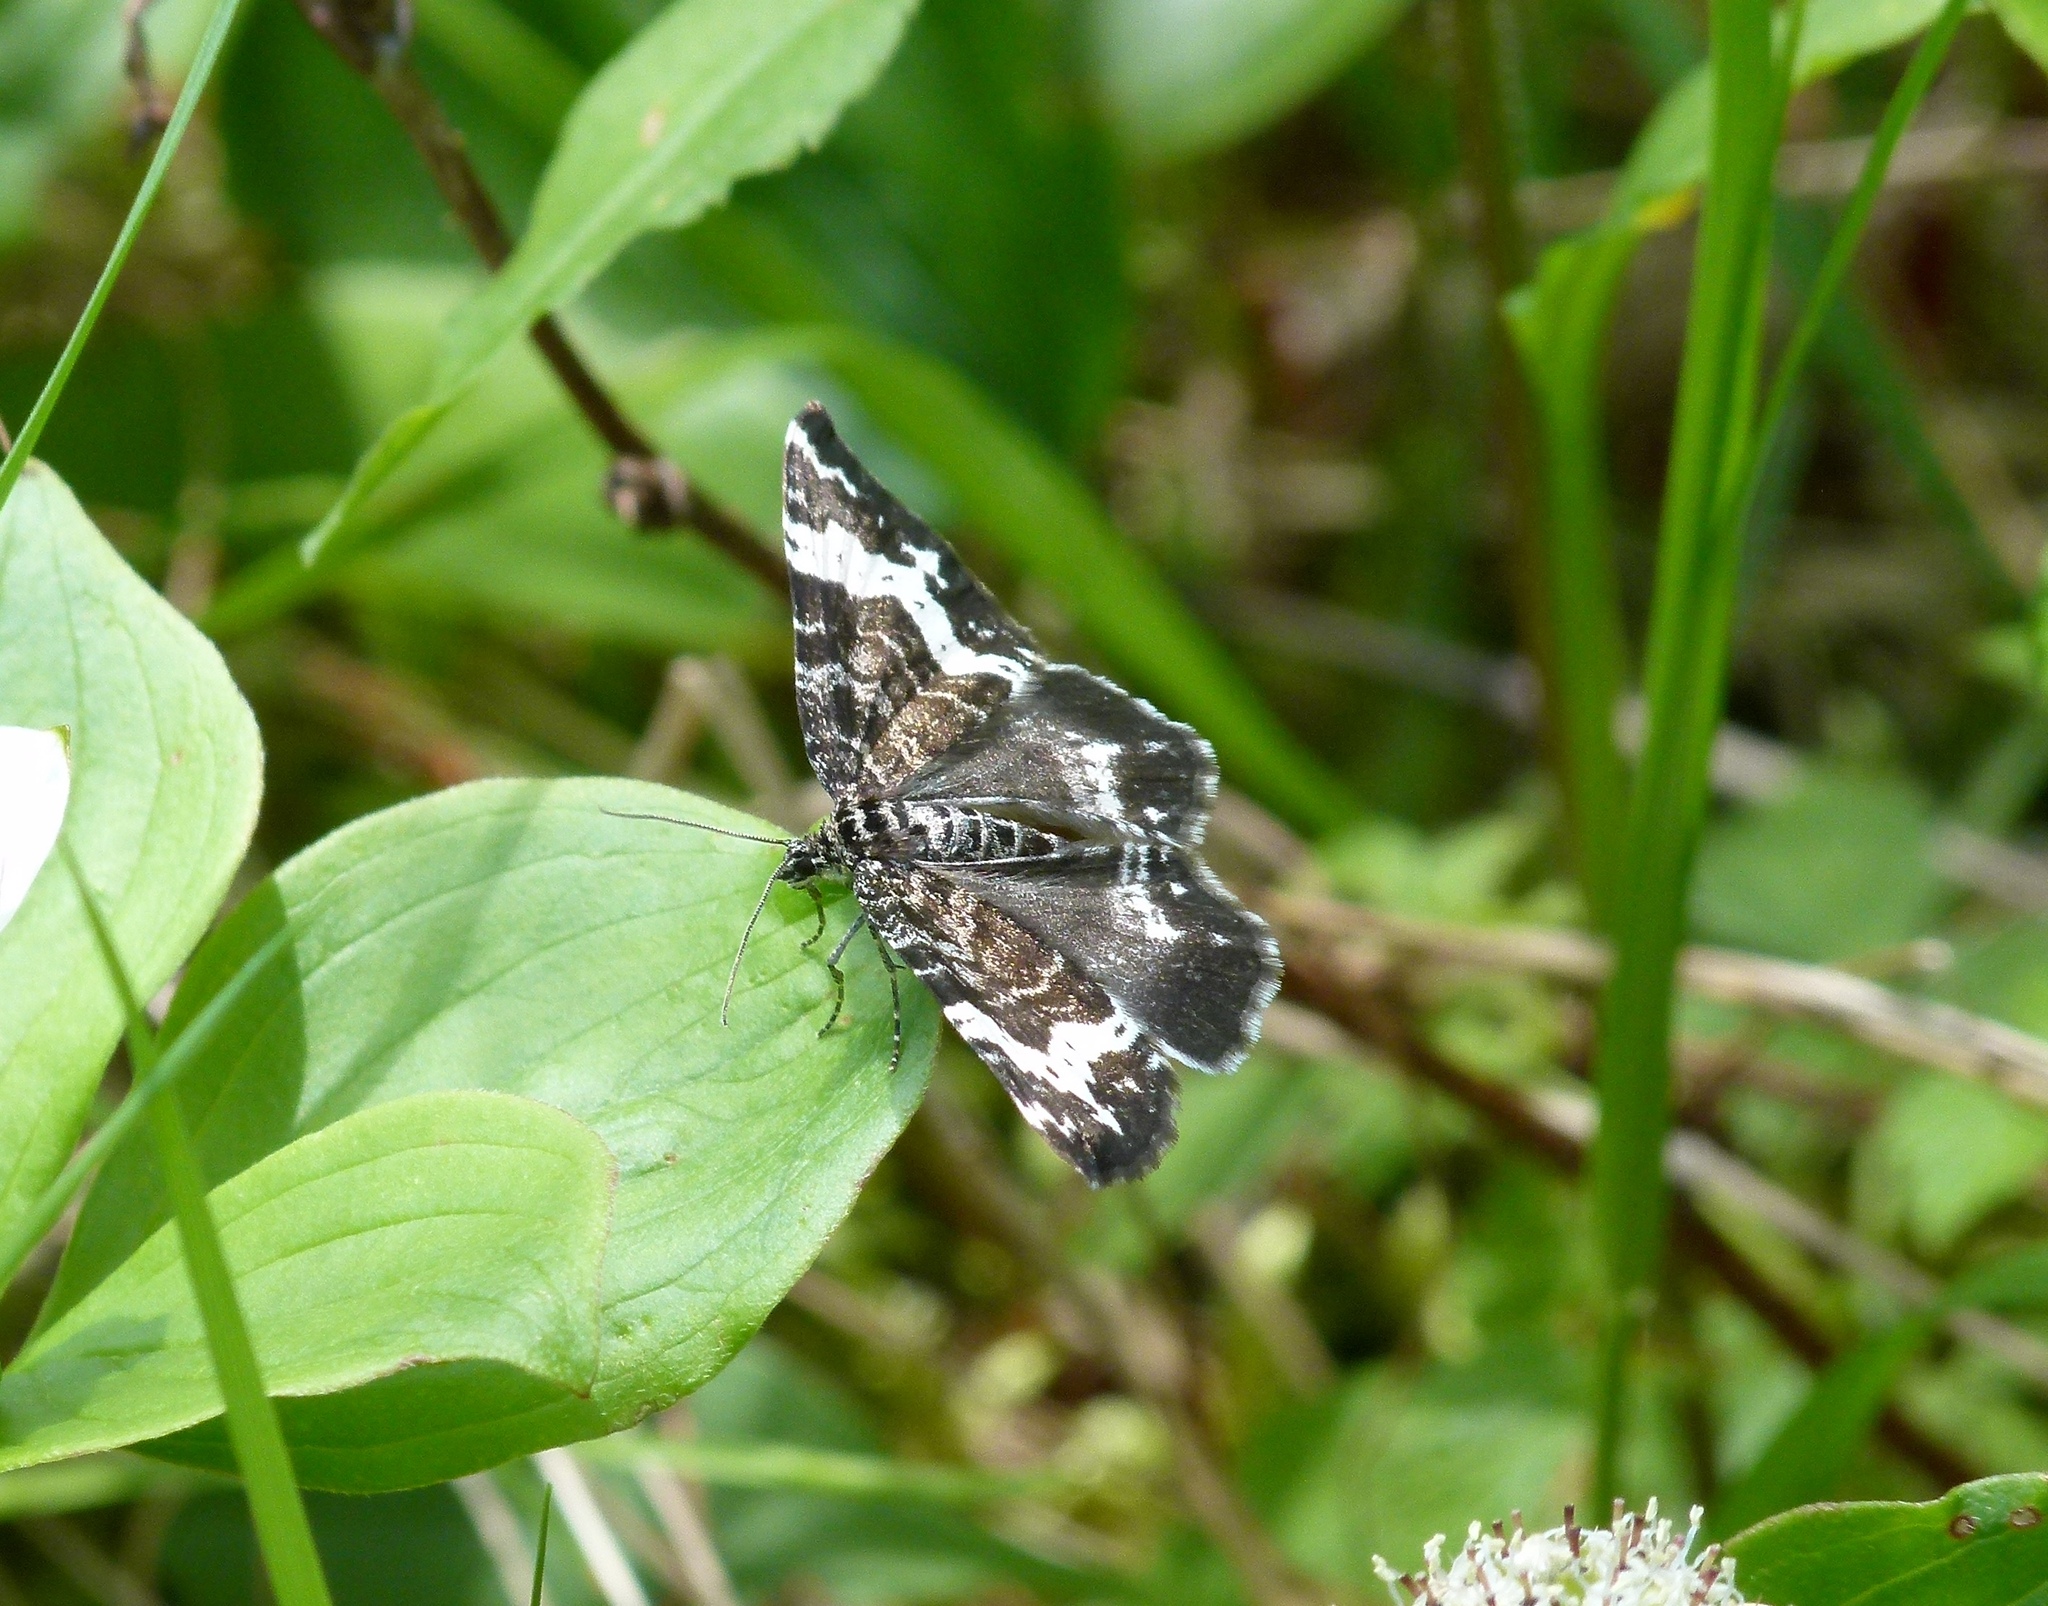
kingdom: Animalia
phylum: Arthropoda
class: Insecta
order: Lepidoptera
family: Geometridae
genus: Rheumaptera
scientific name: Rheumaptera
